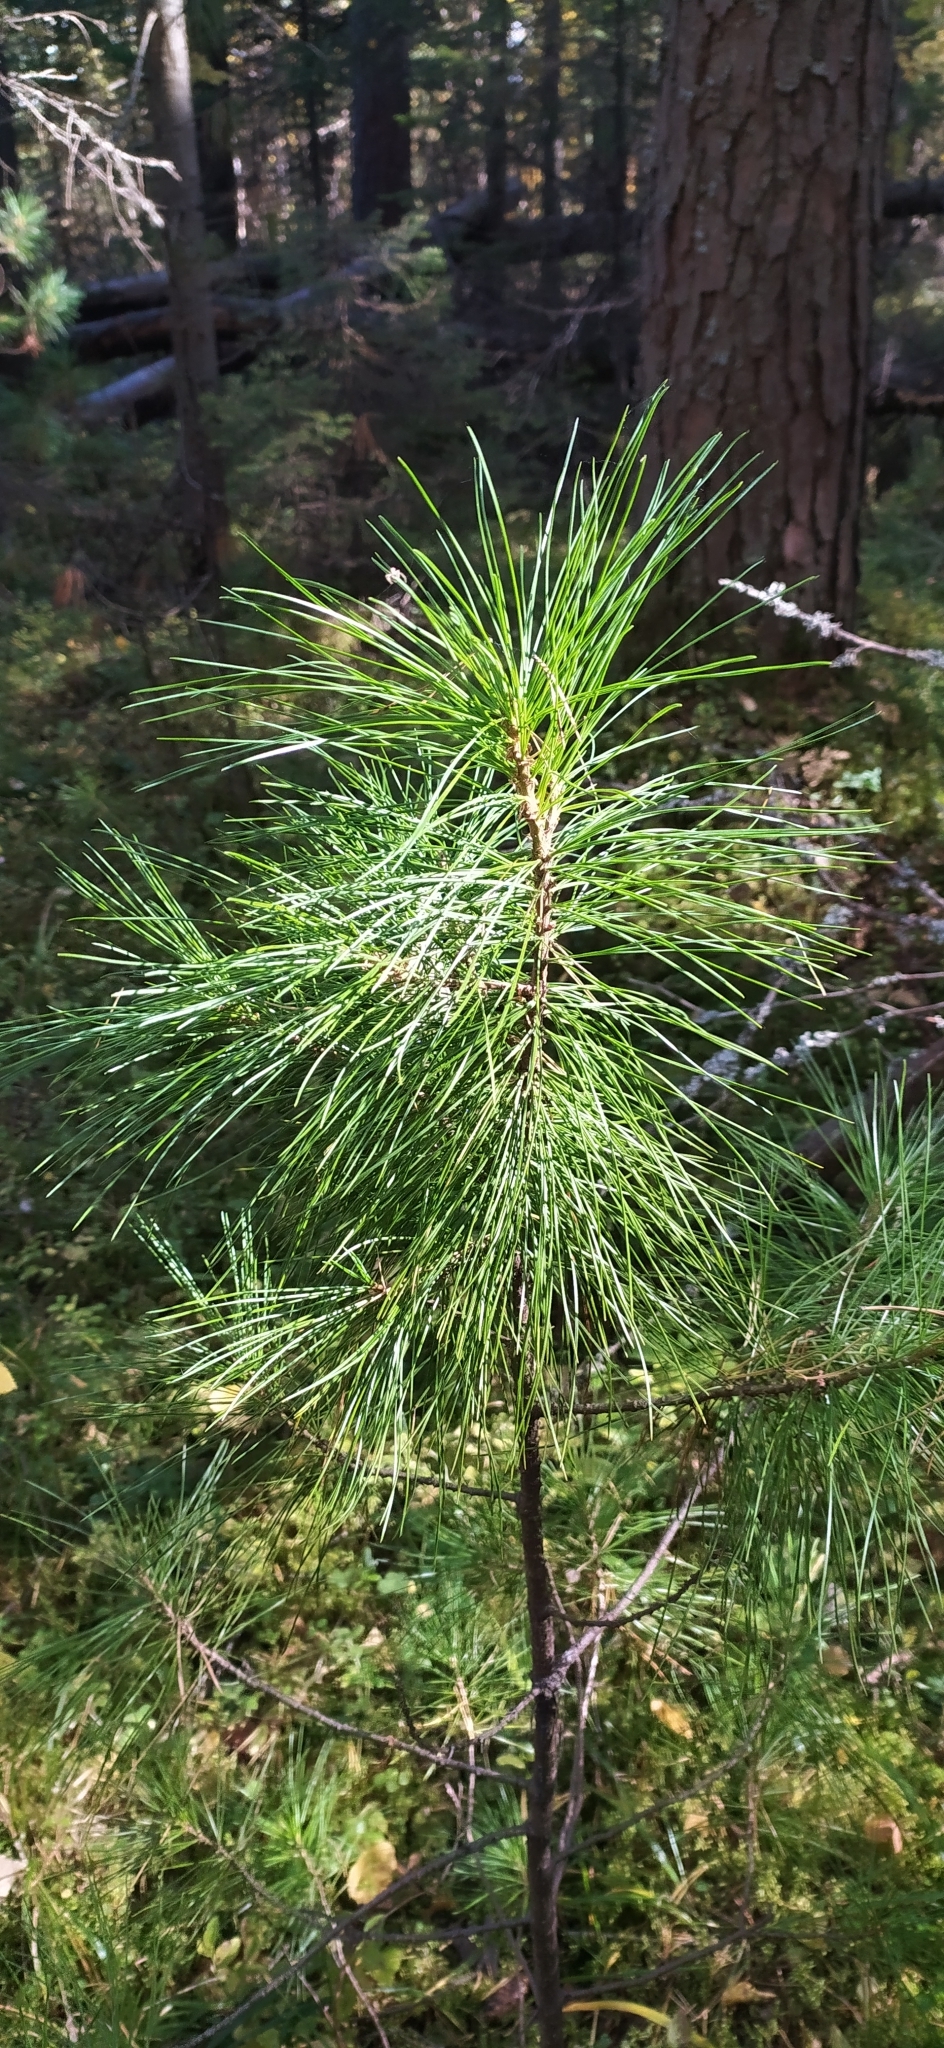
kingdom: Plantae
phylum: Tracheophyta
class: Pinopsida
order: Pinales
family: Pinaceae
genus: Pinus
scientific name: Pinus sibirica
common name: Siberian pine
